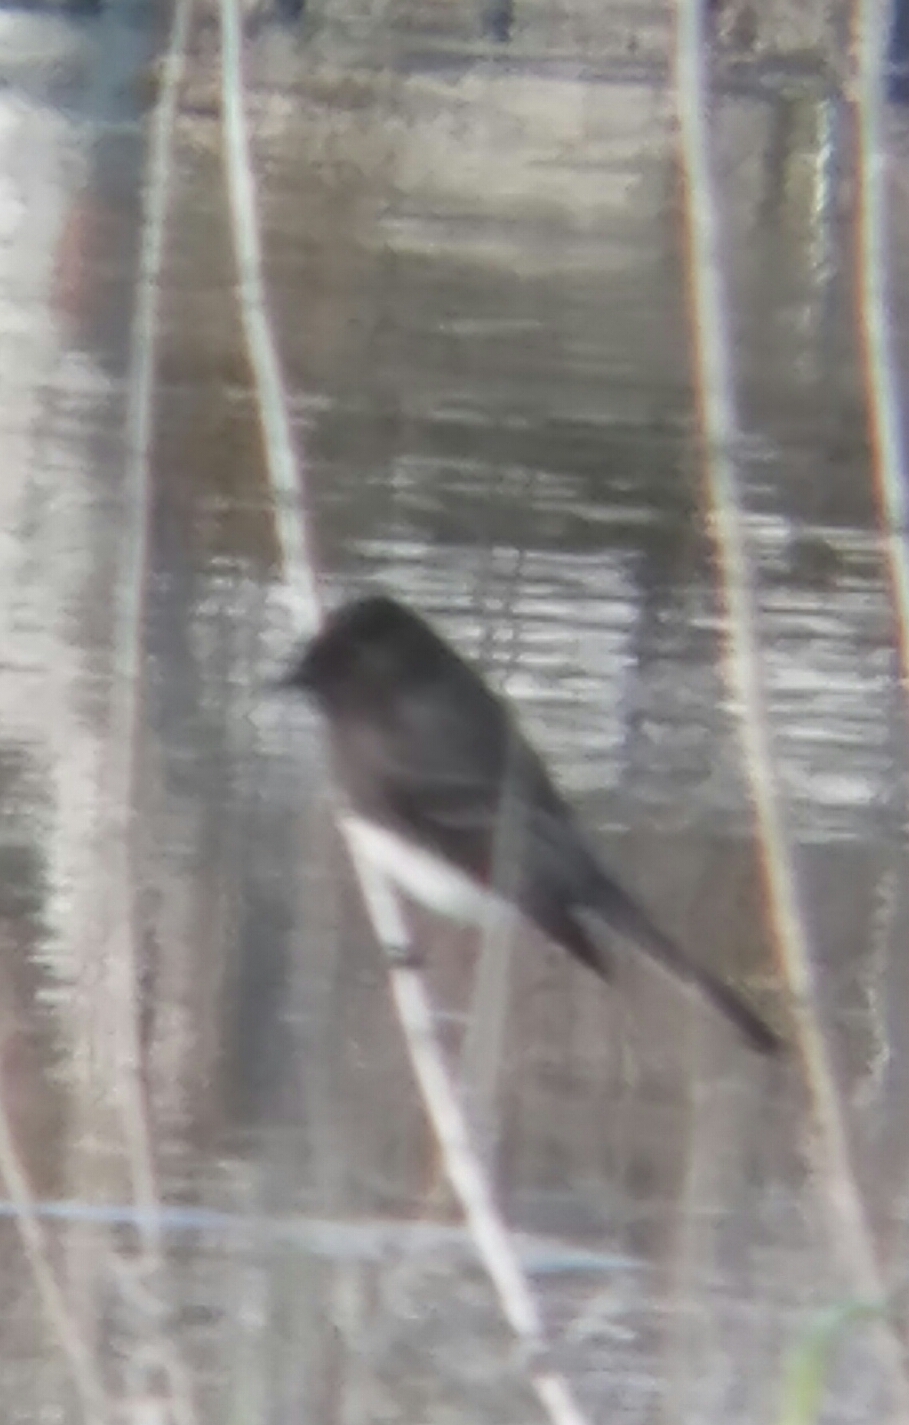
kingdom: Animalia
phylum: Chordata
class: Aves
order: Passeriformes
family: Tyrannidae
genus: Sayornis
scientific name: Sayornis nigricans
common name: Black phoebe
